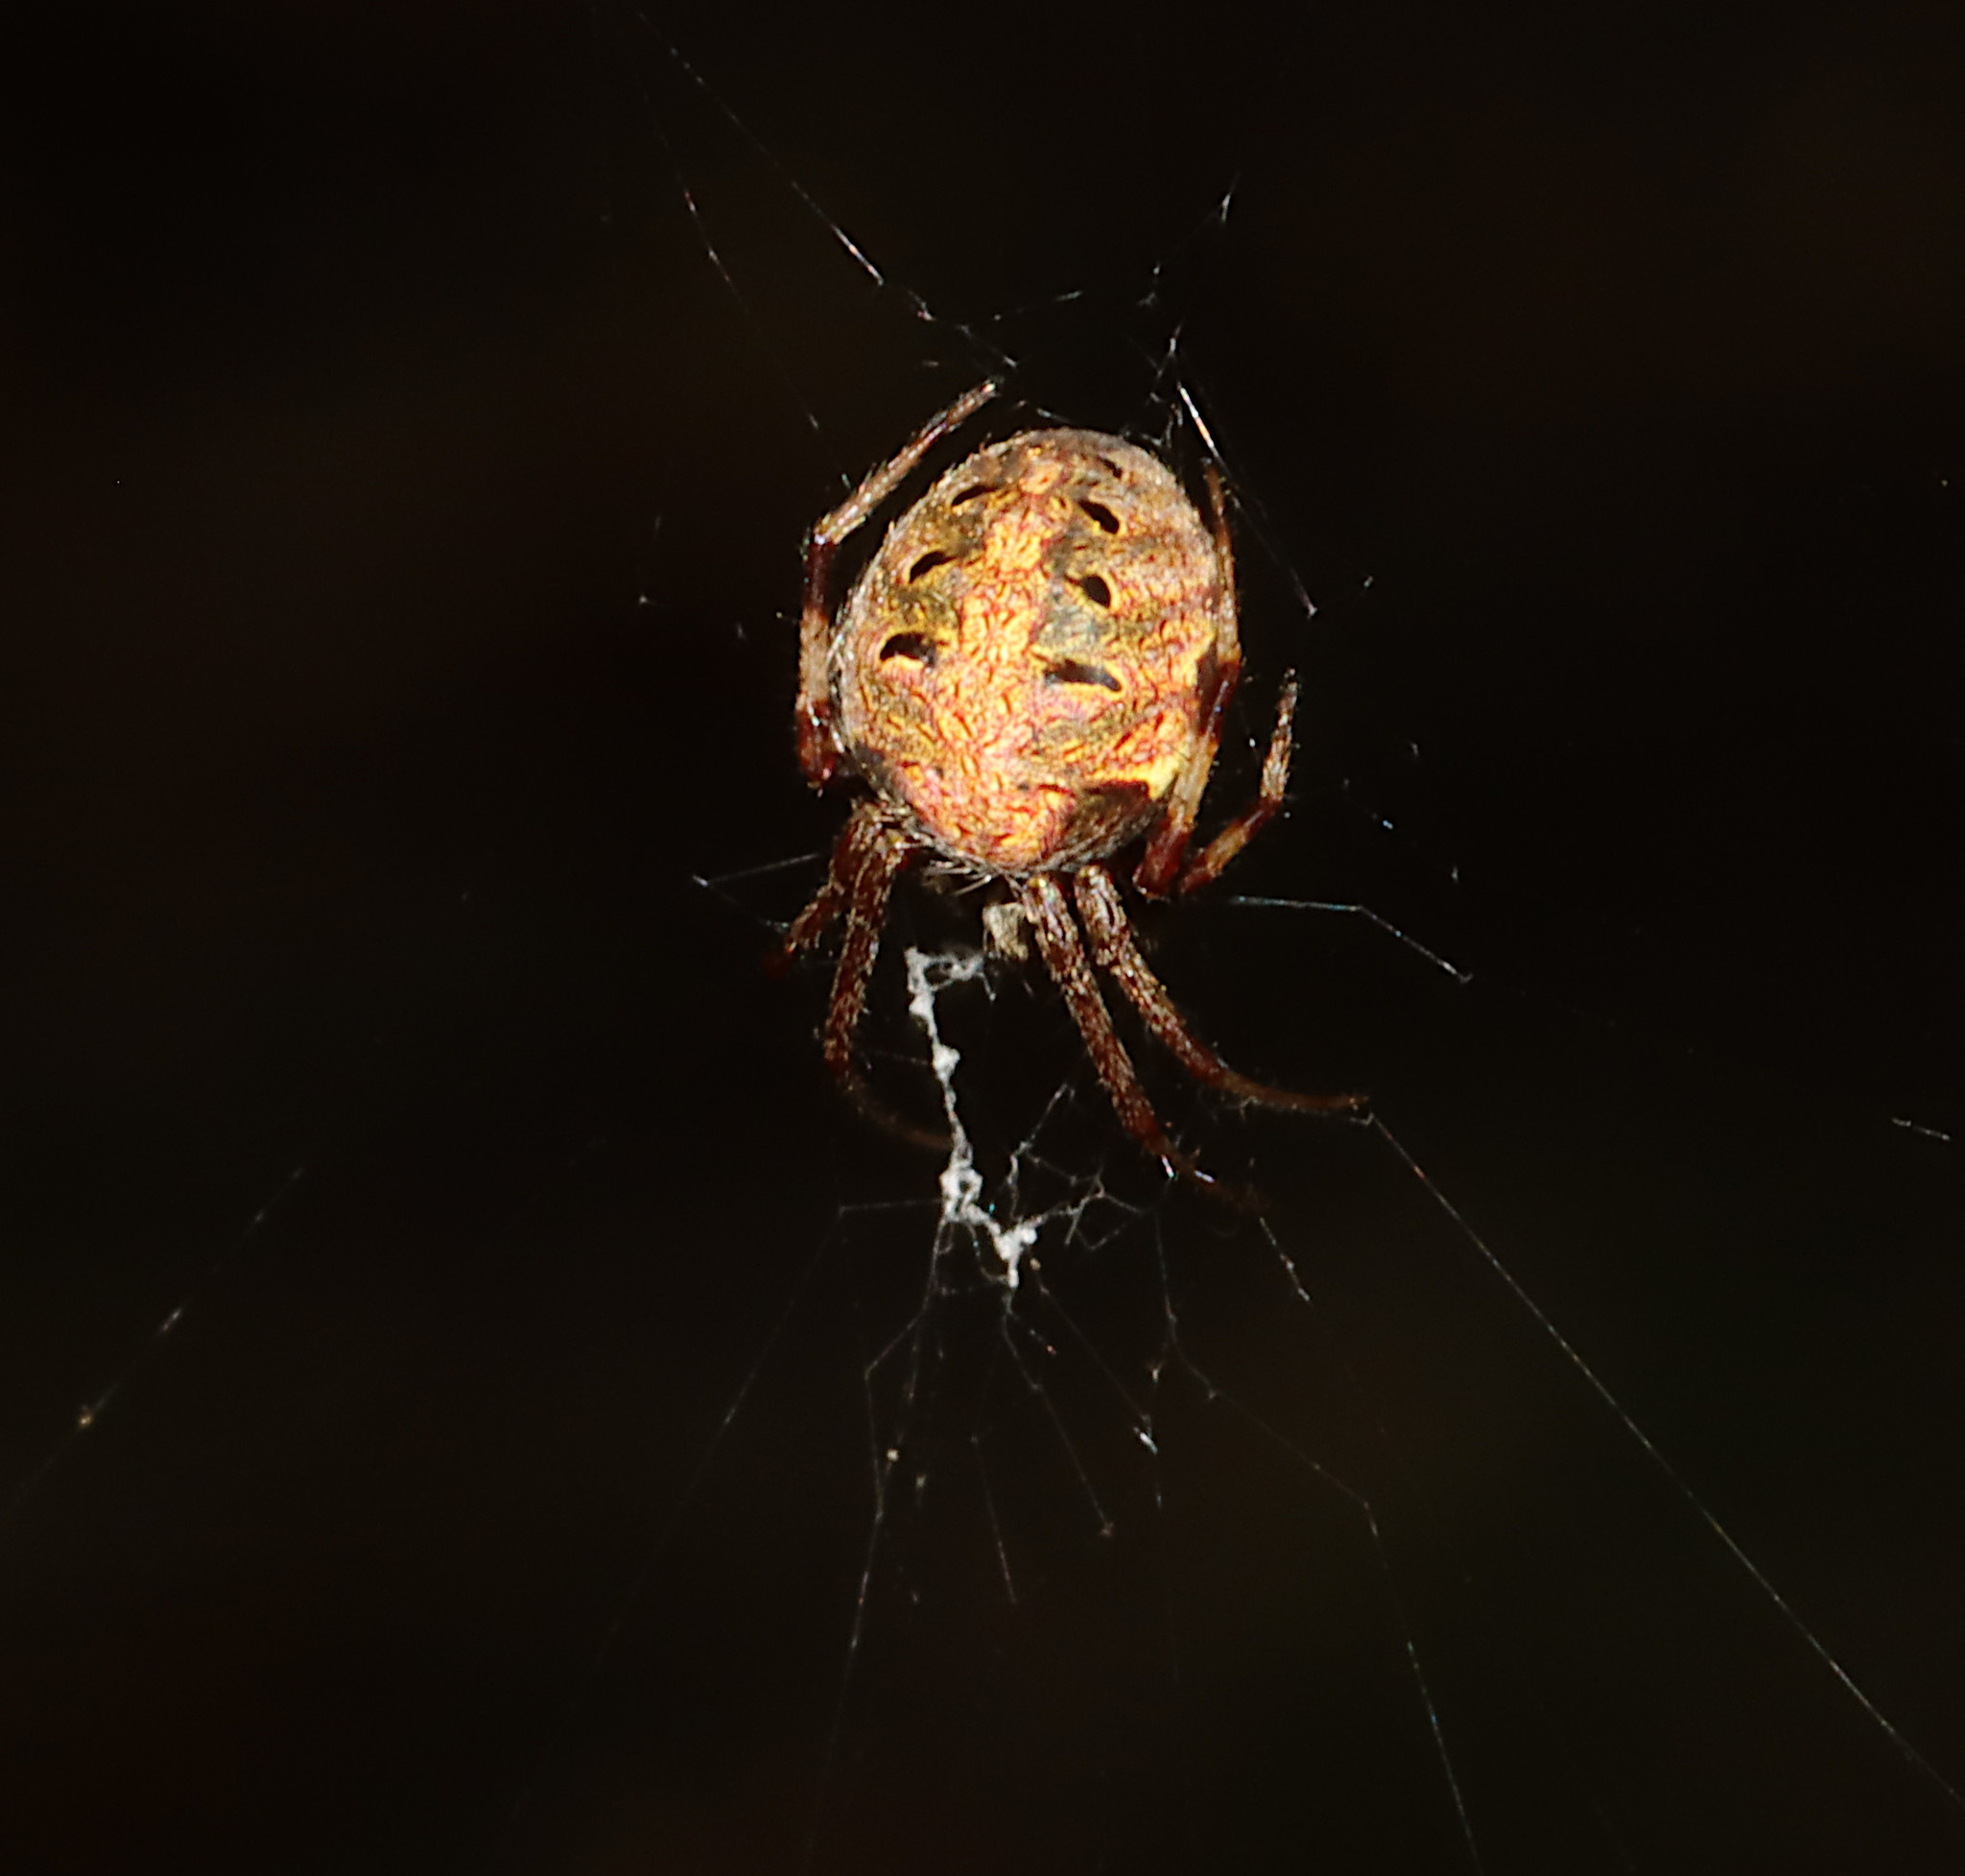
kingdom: Animalia
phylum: Arthropoda
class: Arachnida
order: Araneae
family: Araneidae
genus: Neoscona
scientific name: Neoscona arabesca
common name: Orb weavers
